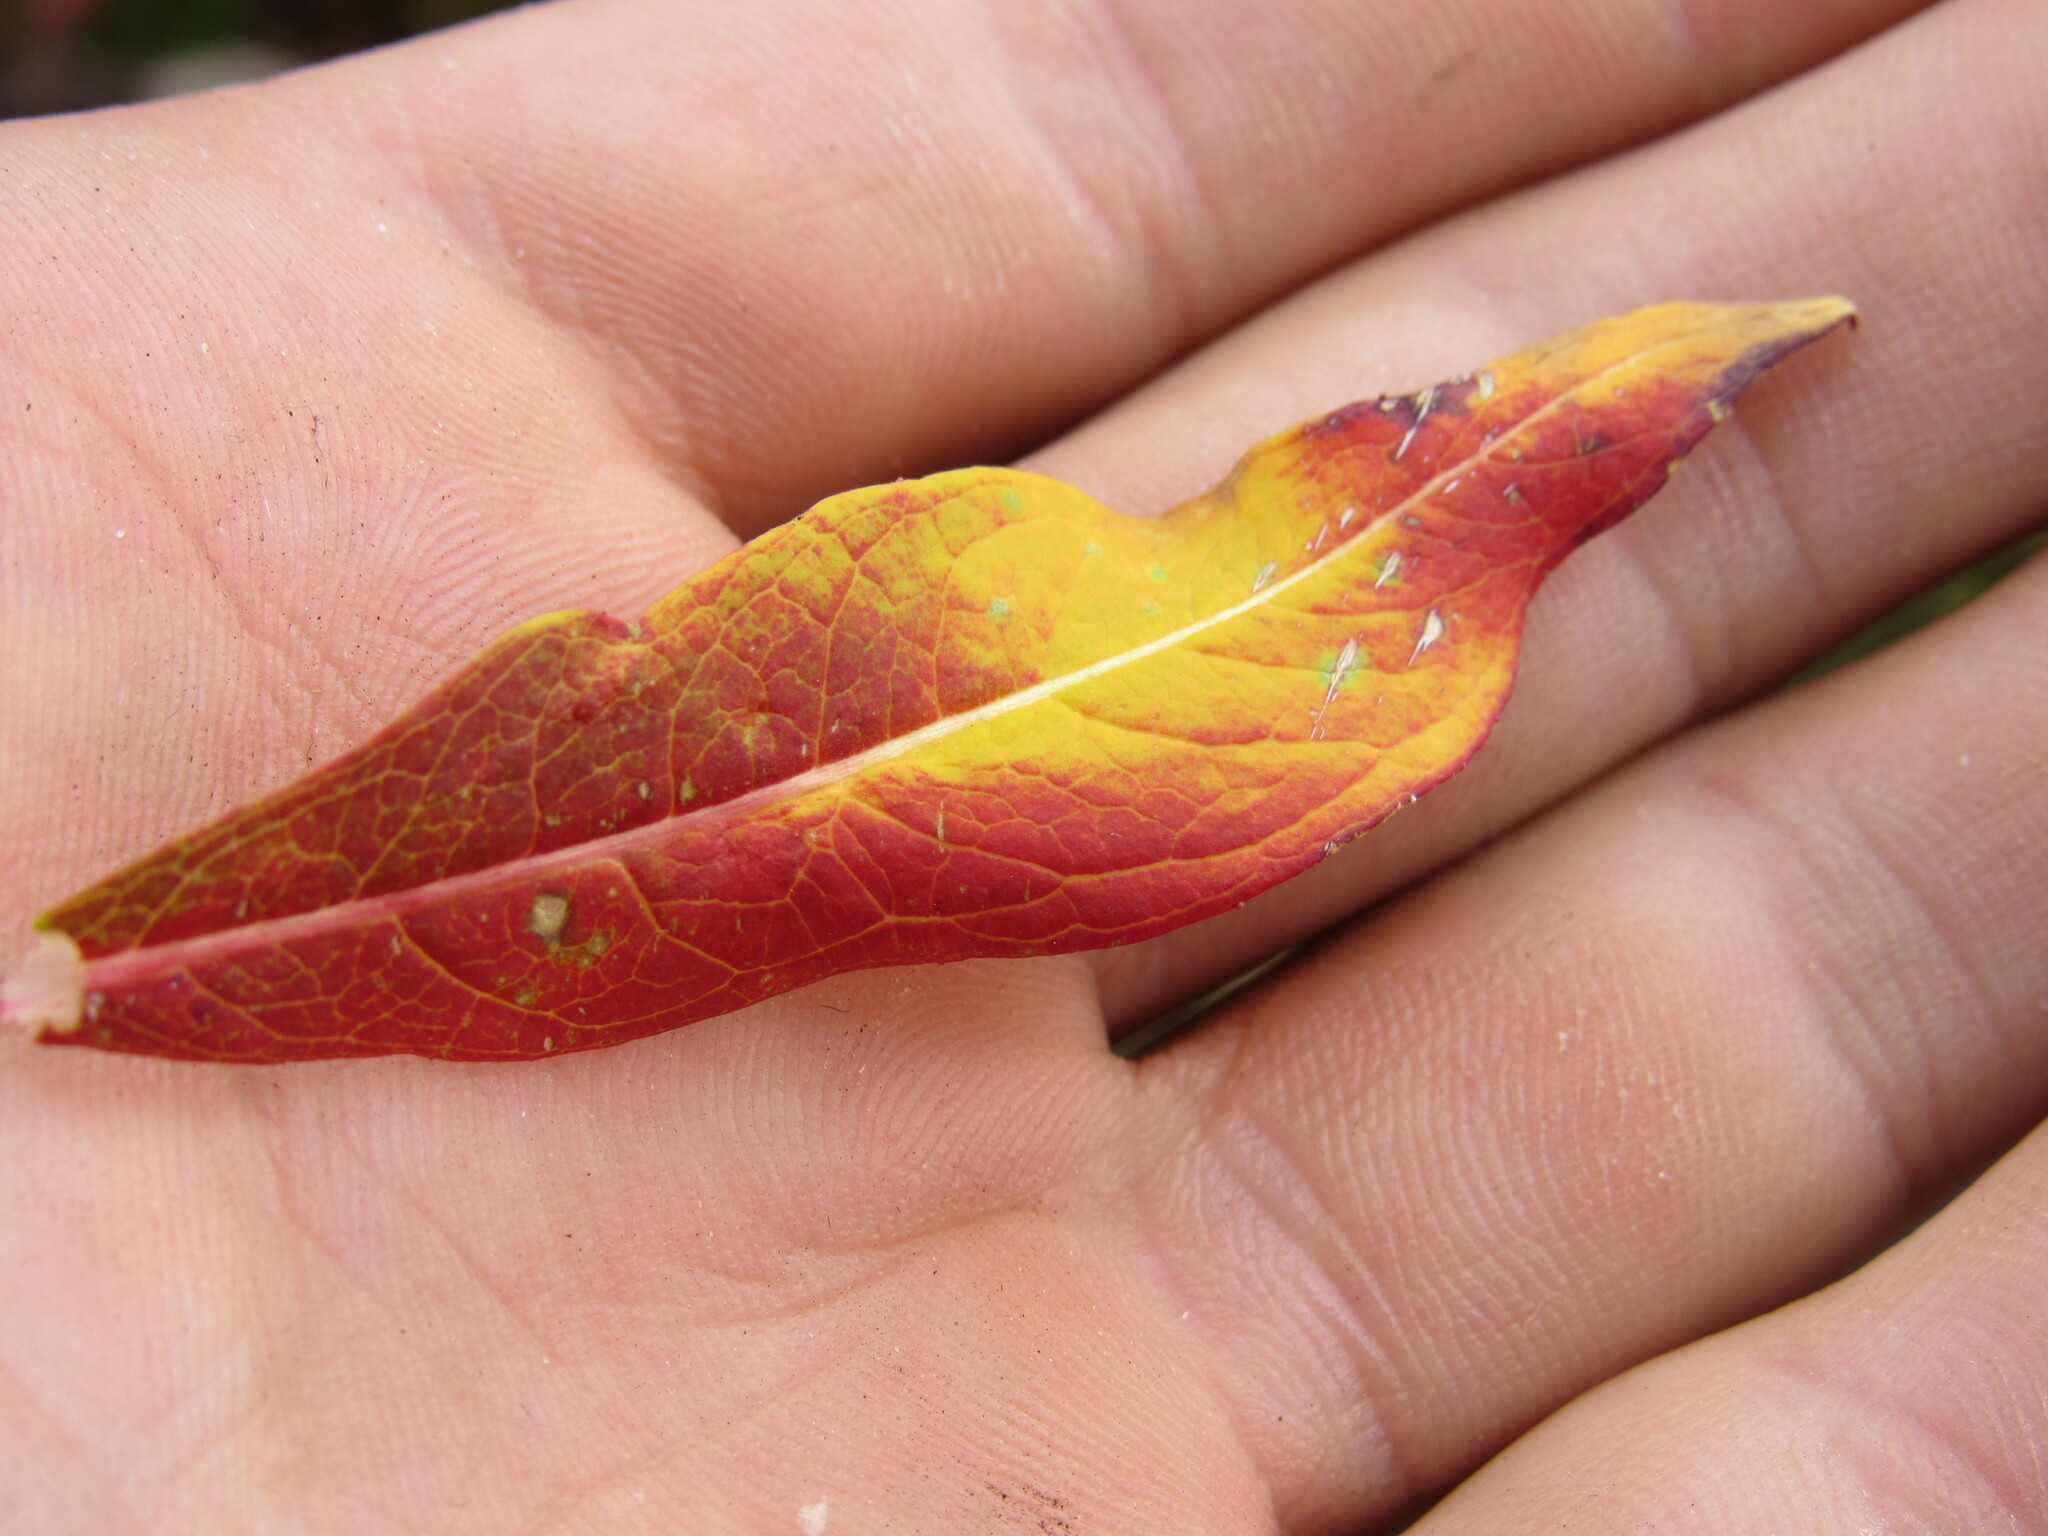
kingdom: Plantae
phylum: Tracheophyta
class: Magnoliopsida
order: Myrtales
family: Onagraceae
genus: Chamaenerion
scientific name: Chamaenerion angustifolium
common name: Fireweed
